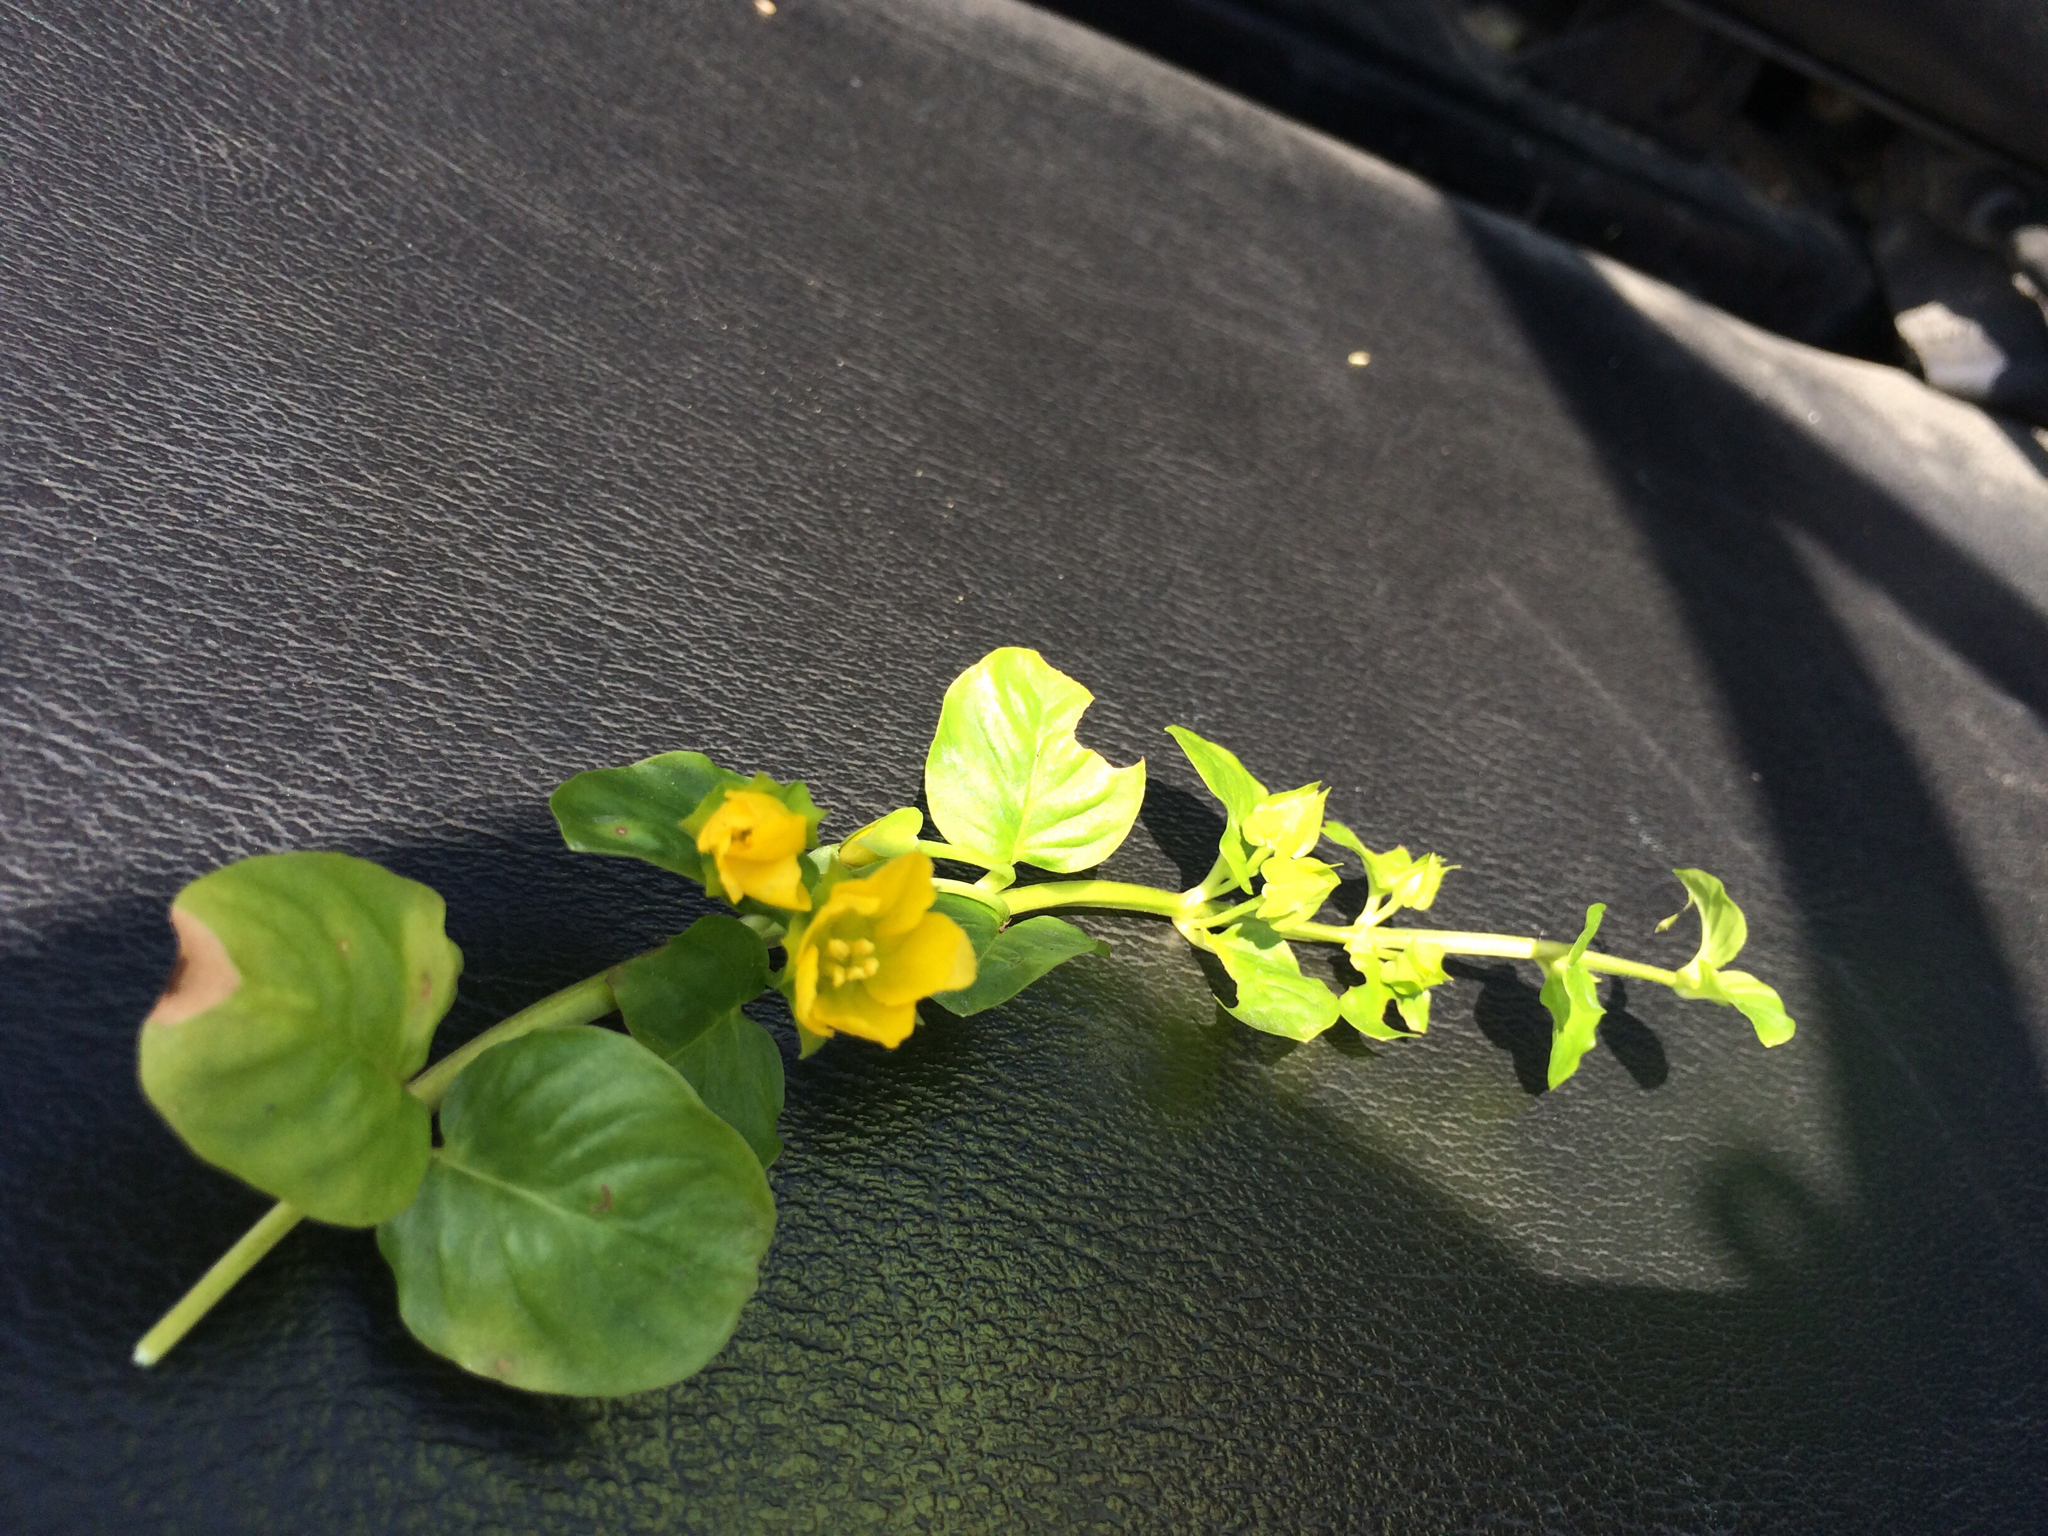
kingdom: Plantae
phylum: Tracheophyta
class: Magnoliopsida
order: Ericales
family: Primulaceae
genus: Lysimachia
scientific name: Lysimachia nummularia
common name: Moneywort
